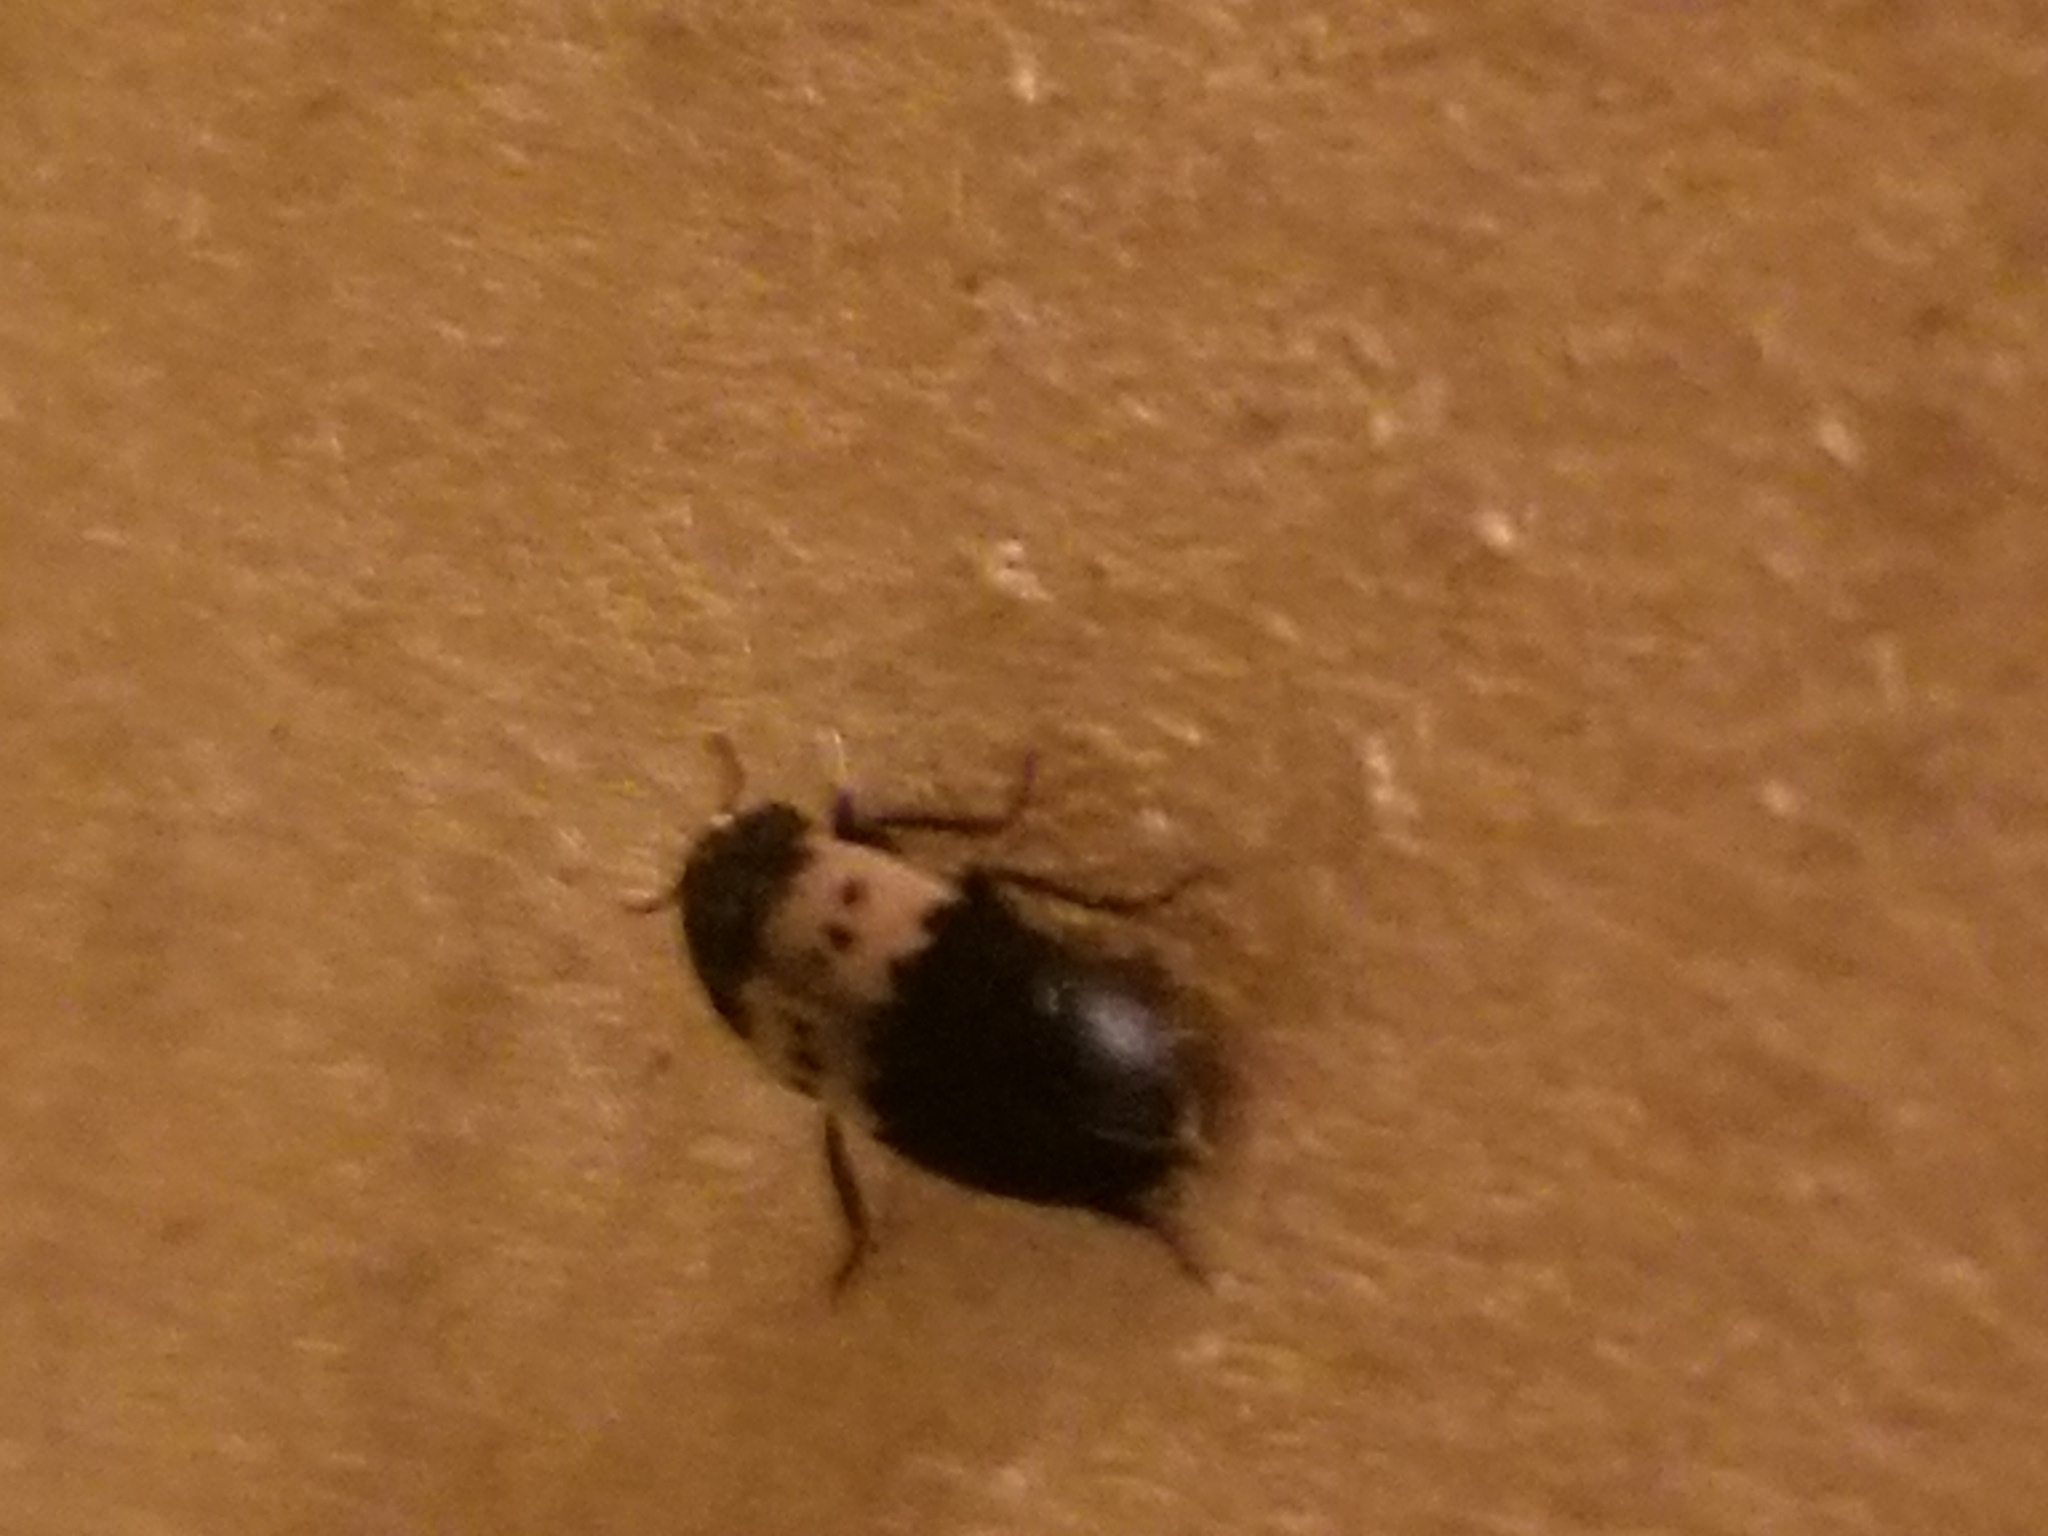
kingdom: Animalia
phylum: Arthropoda
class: Insecta
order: Coleoptera
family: Dermestidae
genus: Dermestes
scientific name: Dermestes lardarius
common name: Larder beetle
